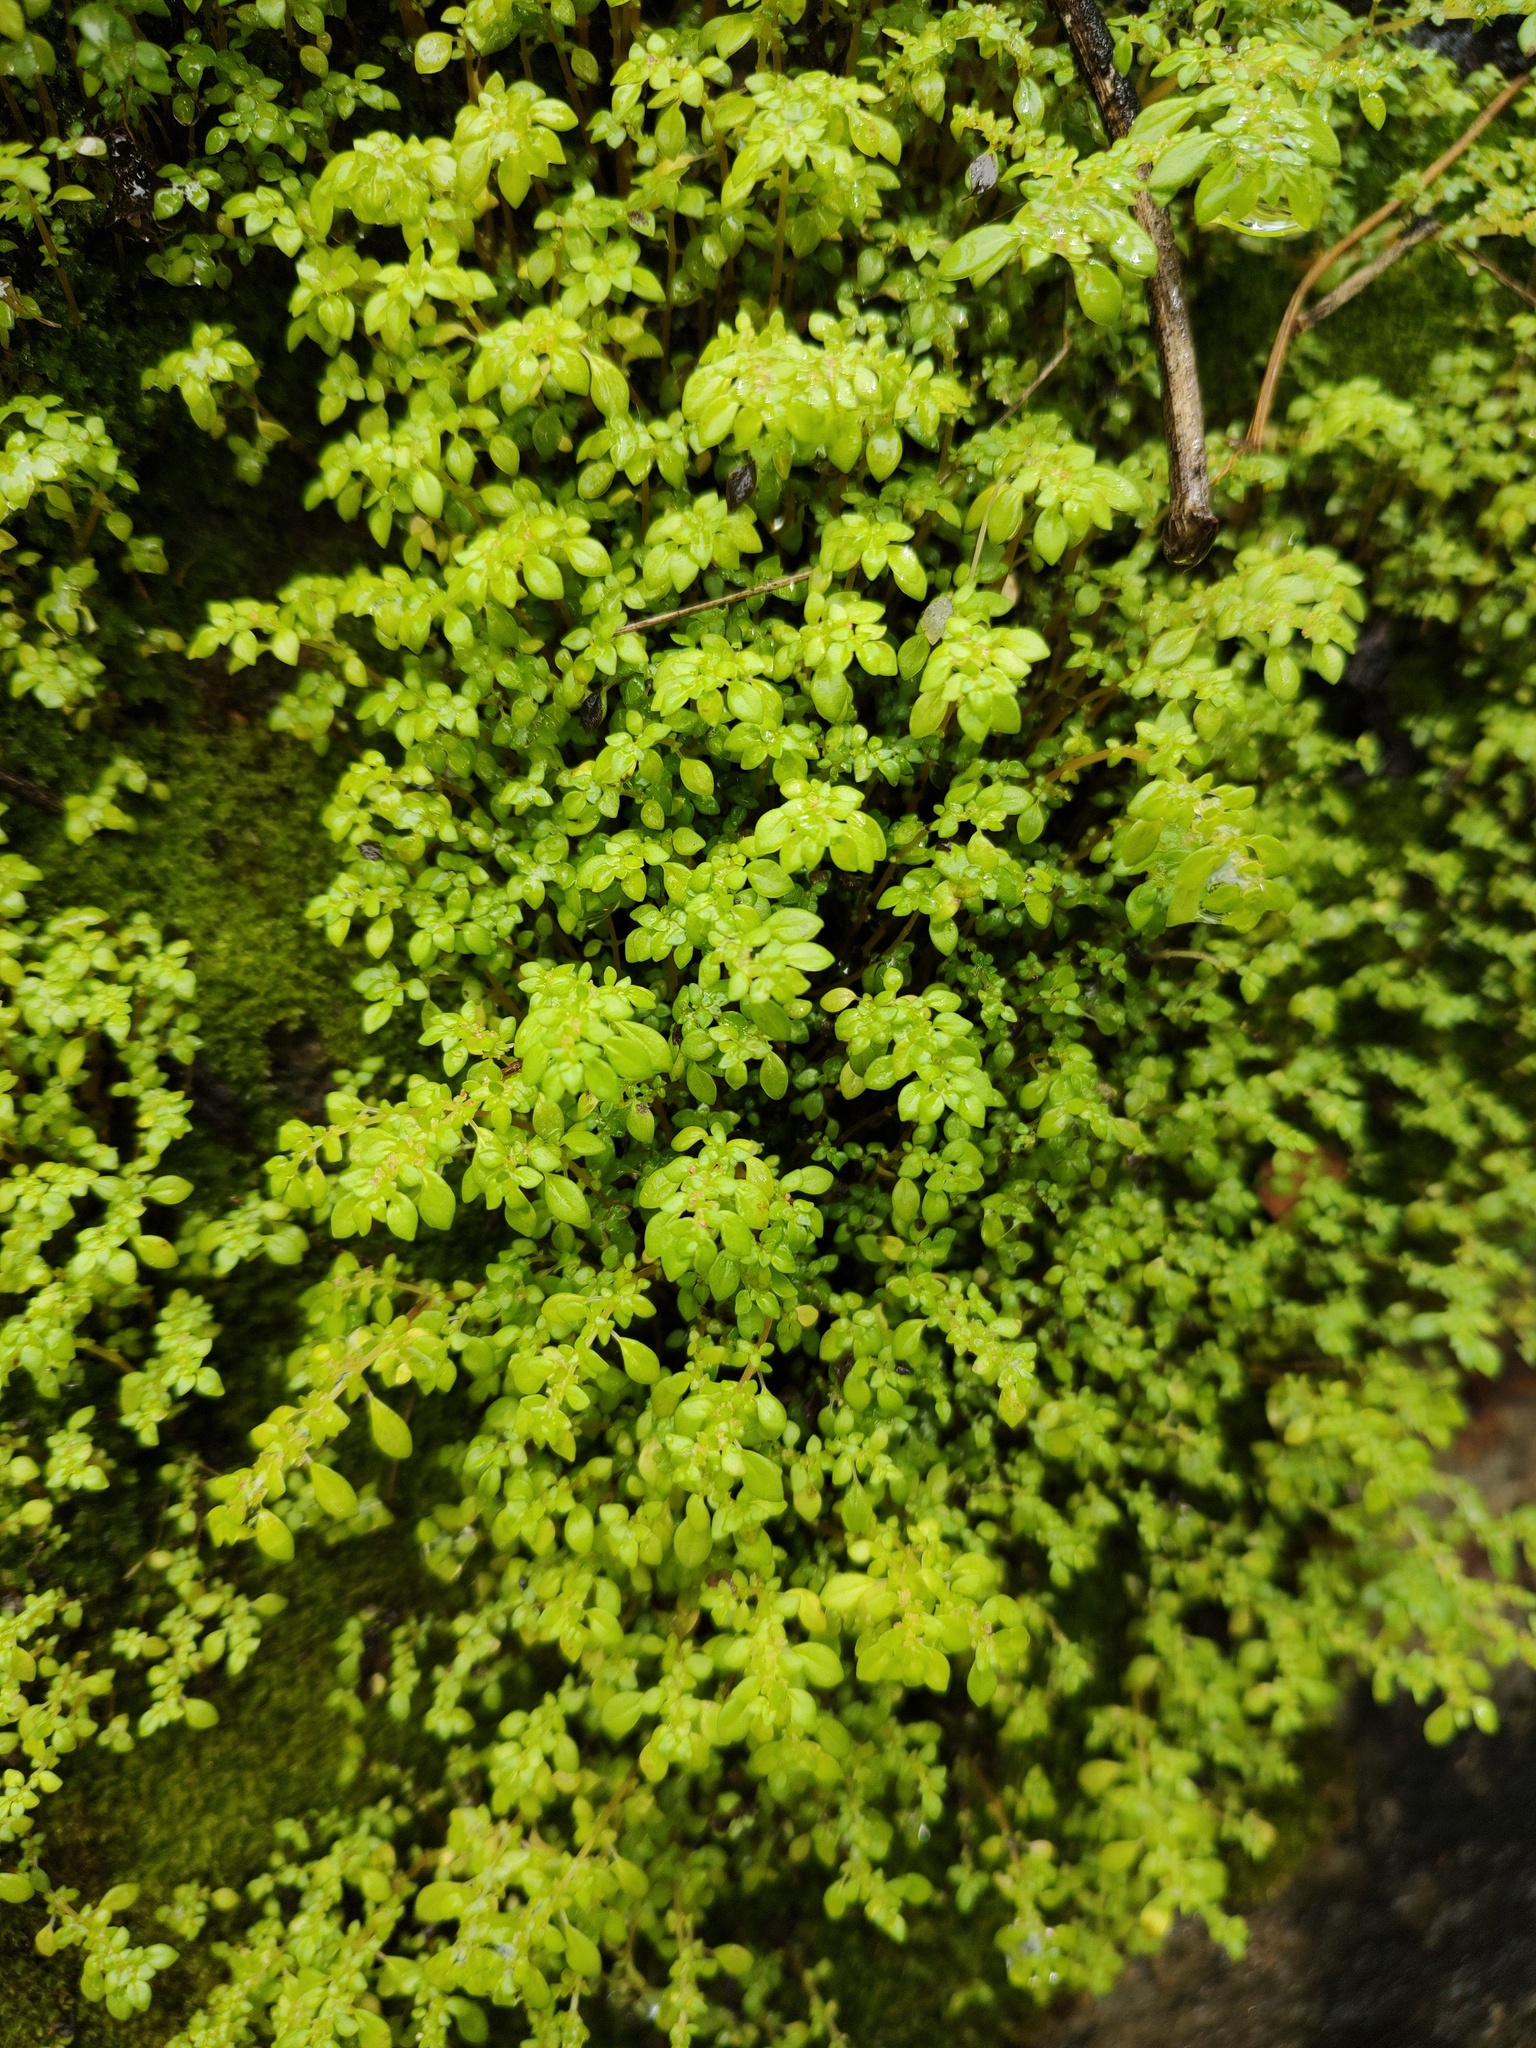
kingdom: Plantae
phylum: Tracheophyta
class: Magnoliopsida
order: Rosales
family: Urticaceae
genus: Pilea
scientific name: Pilea microphylla
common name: Artillery-plant
